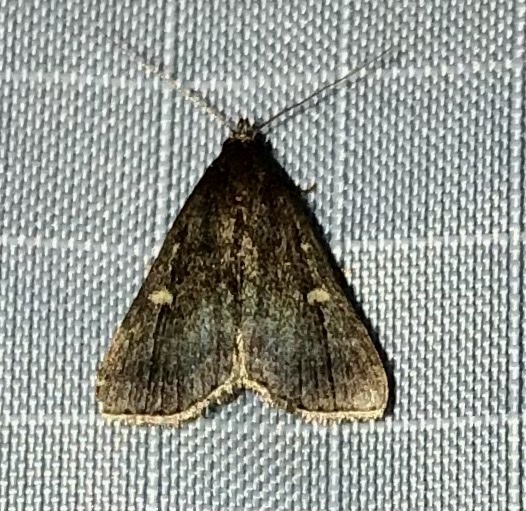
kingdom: Animalia
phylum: Arthropoda
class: Insecta
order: Lepidoptera
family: Erebidae
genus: Tetanolita
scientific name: Tetanolita mynesalis
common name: Smoky tetanolita moth
